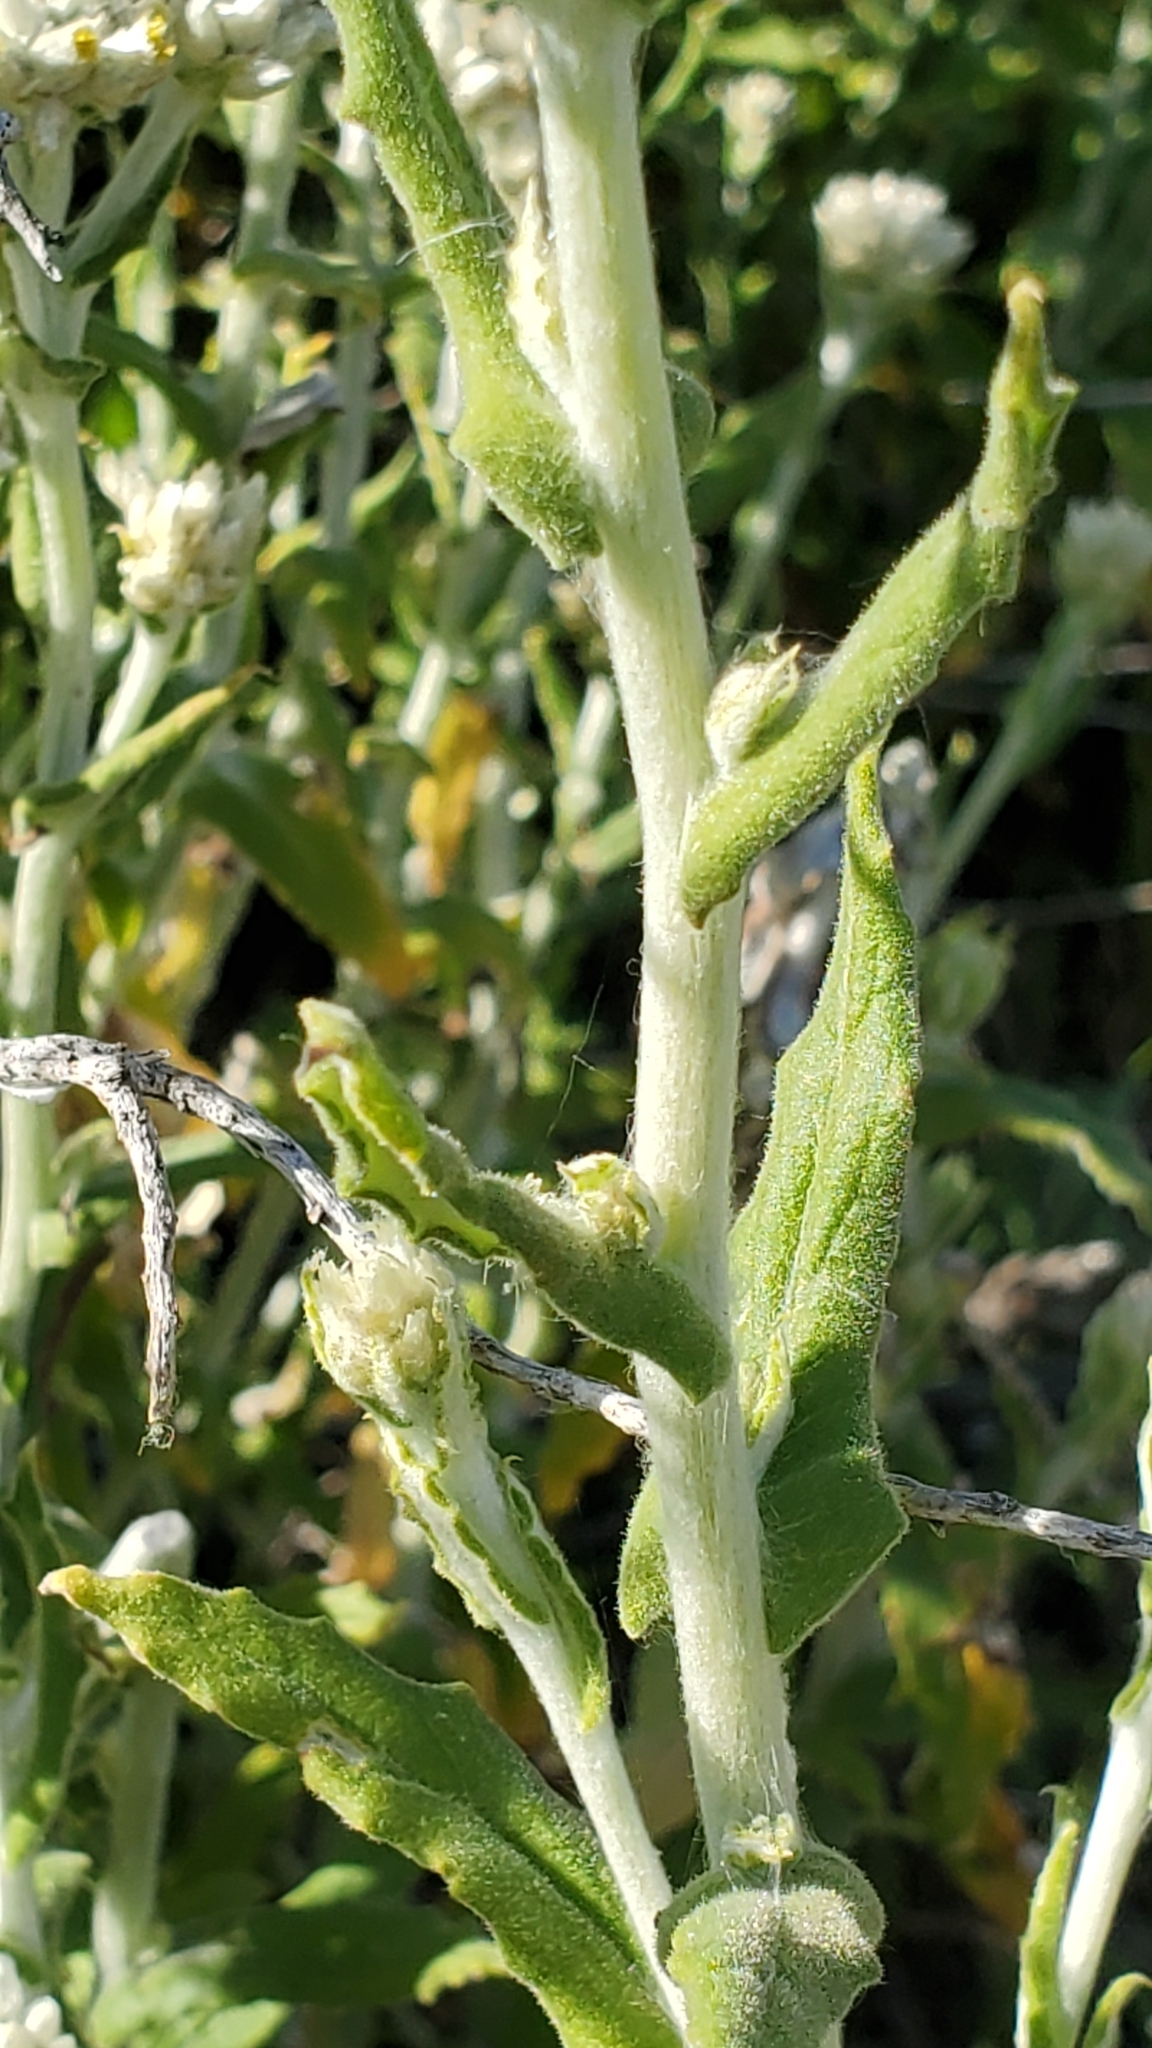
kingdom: Plantae
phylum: Tracheophyta
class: Magnoliopsida
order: Asterales
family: Asteraceae
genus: Pseudognaphalium
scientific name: Pseudognaphalium biolettii
